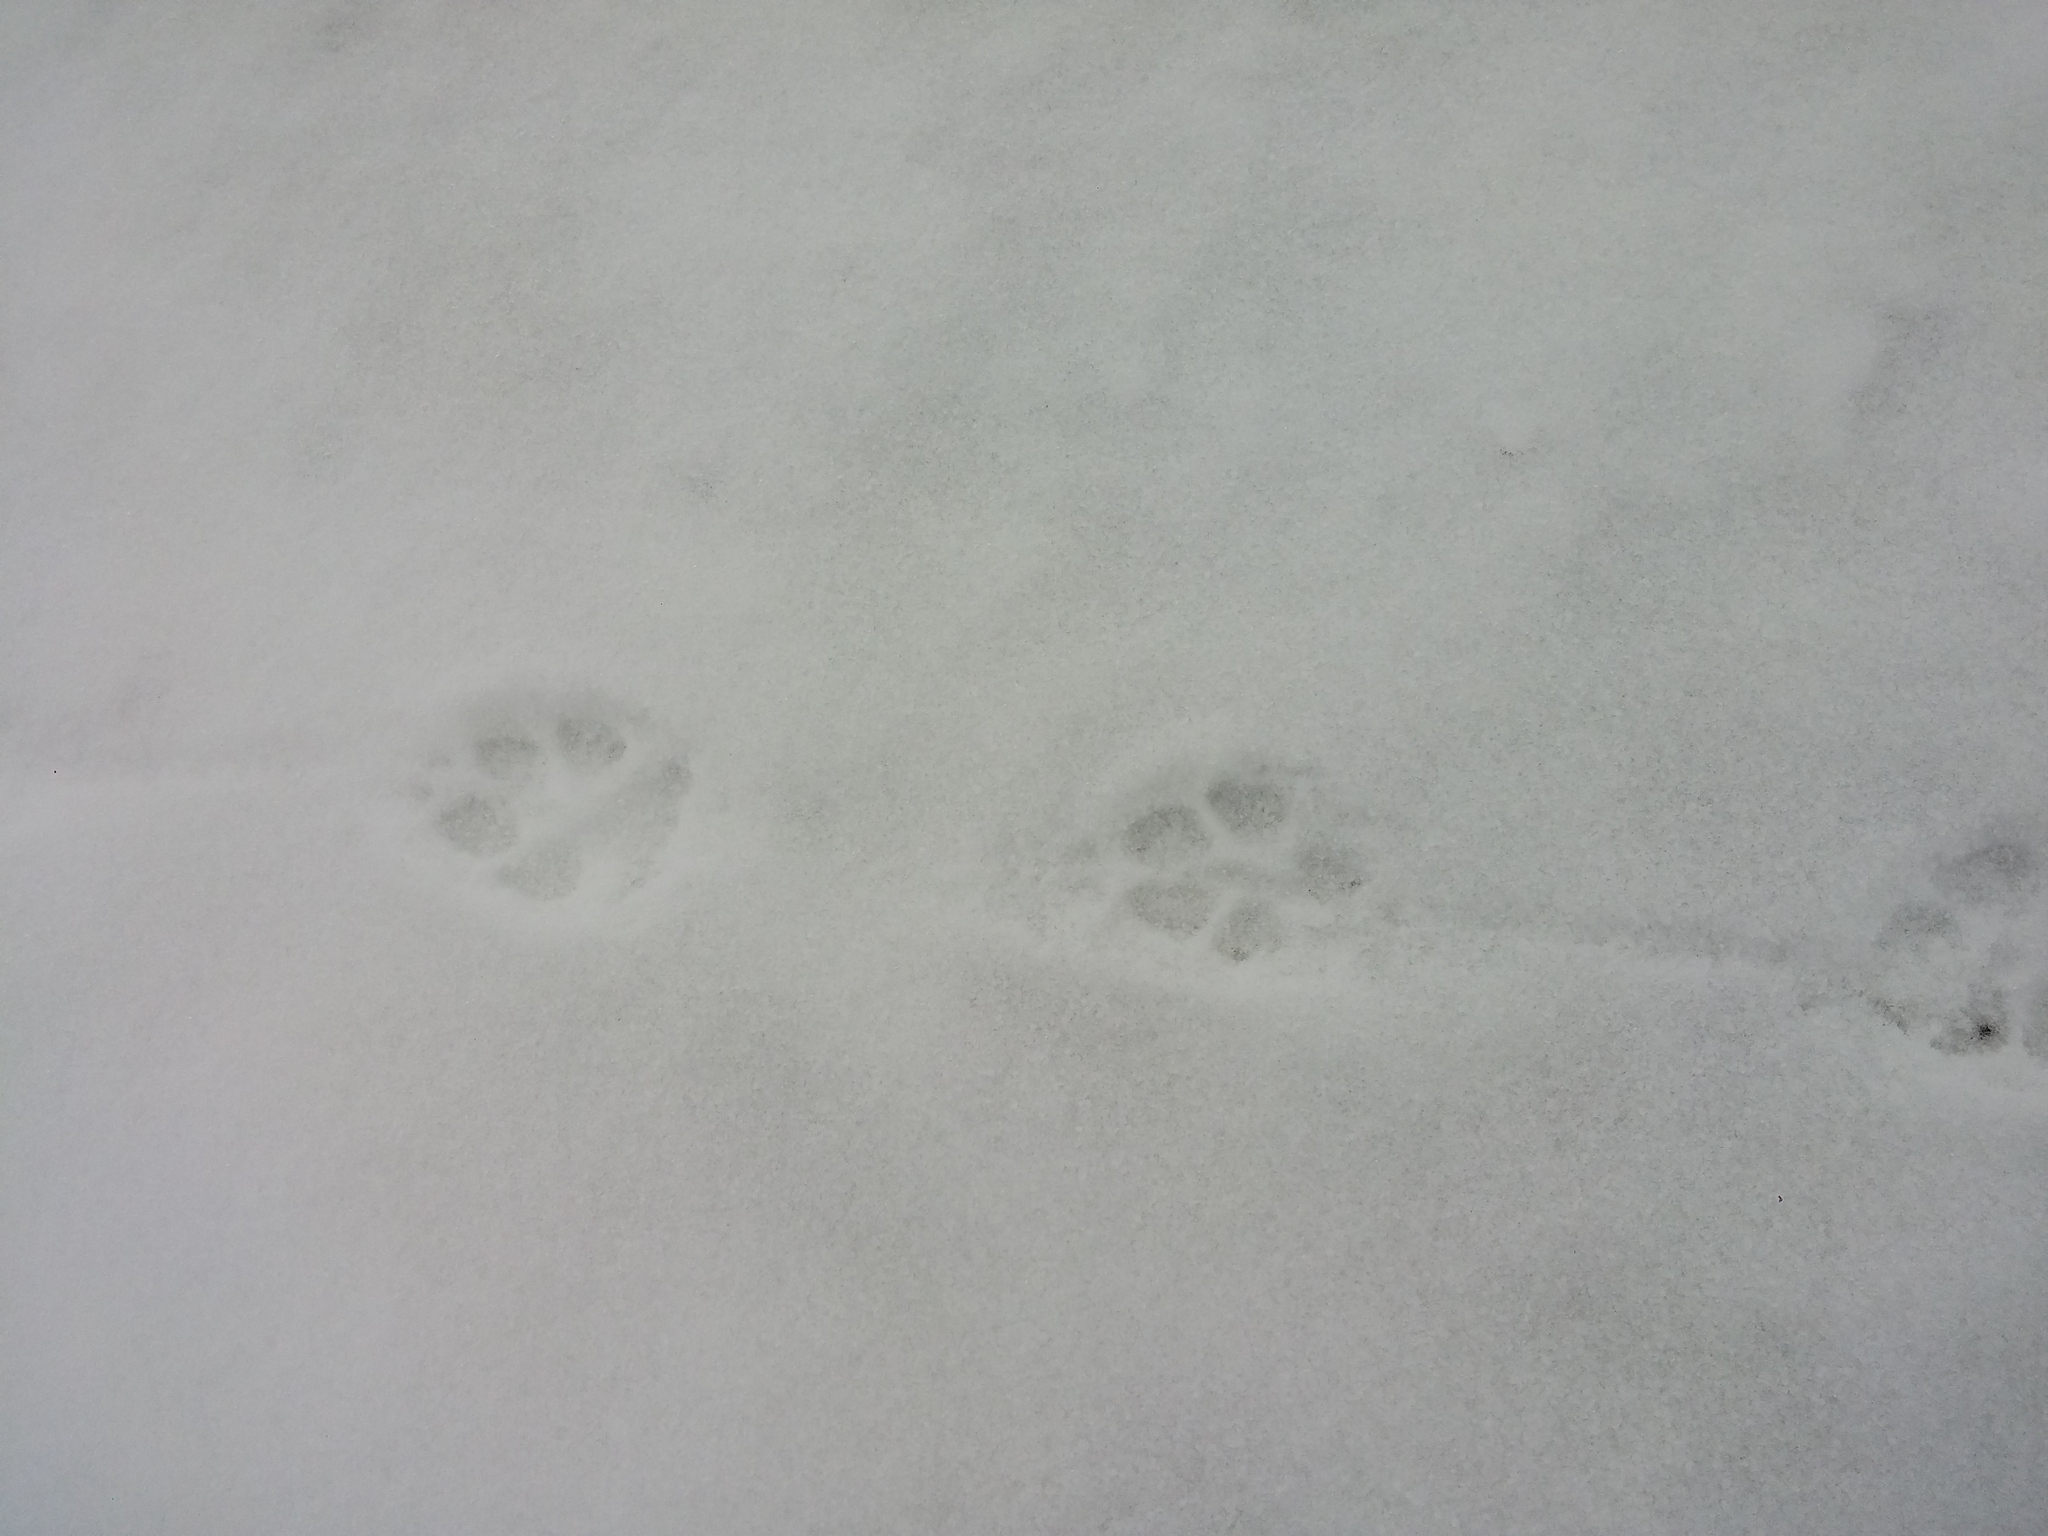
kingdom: Animalia
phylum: Chordata
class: Mammalia
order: Carnivora
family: Canidae
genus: Canis
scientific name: Canis latrans
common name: Coyote
